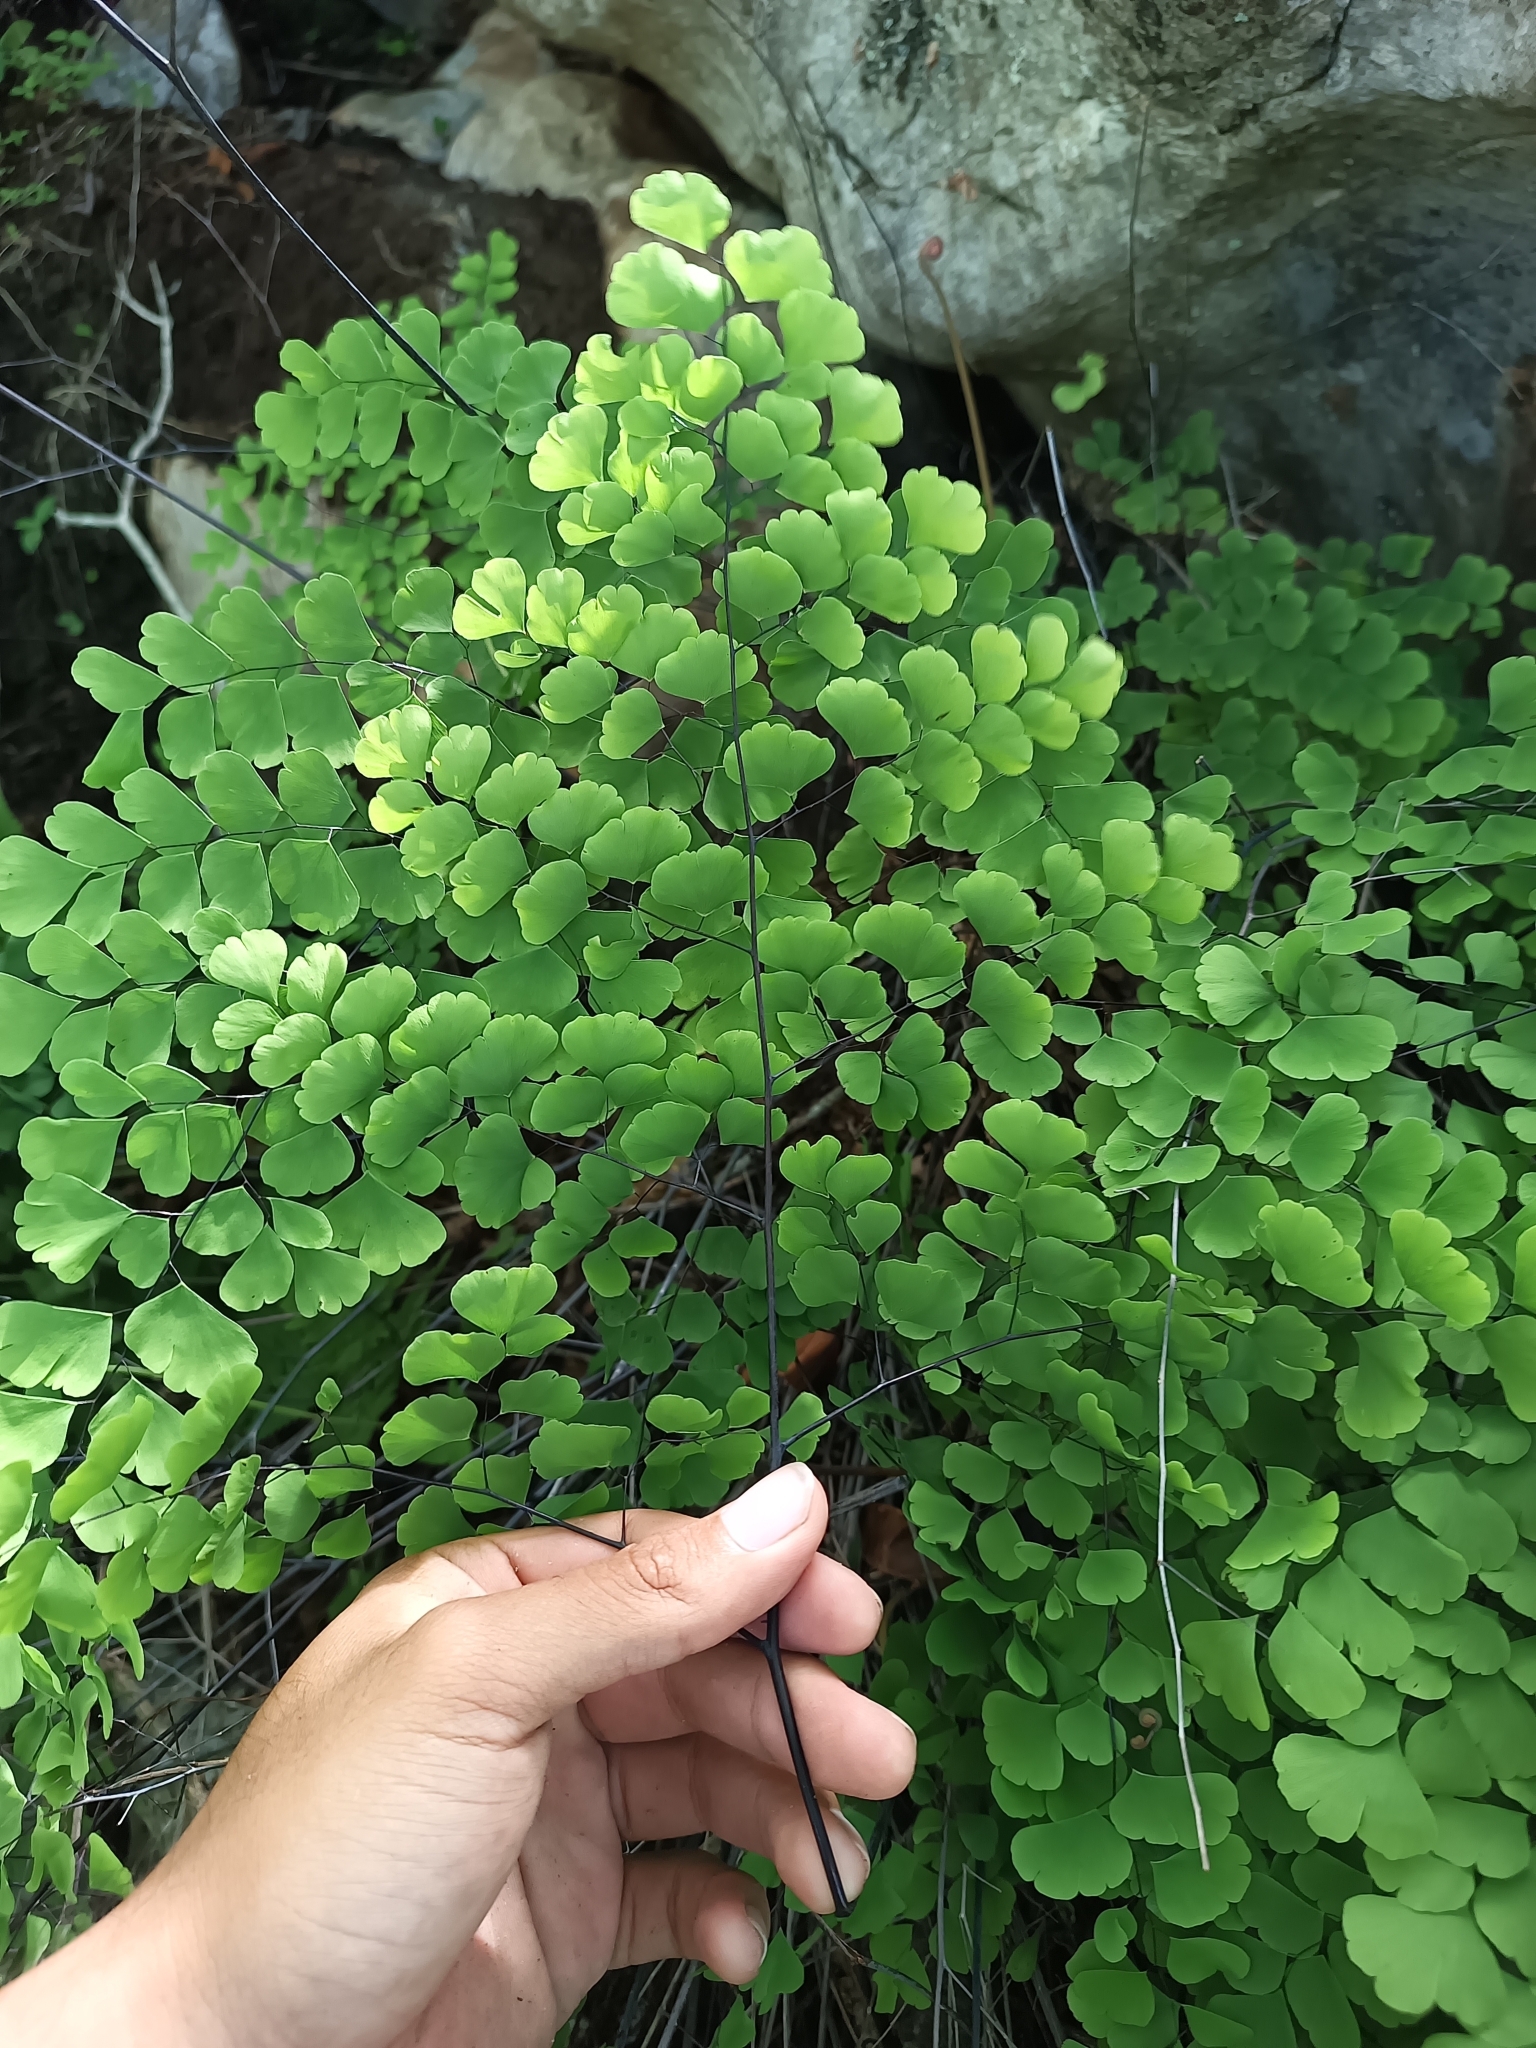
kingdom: Plantae
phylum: Tracheophyta
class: Polypodiopsida
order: Polypodiales
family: Pteridaceae
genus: Adiantum
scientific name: Adiantum amplum
